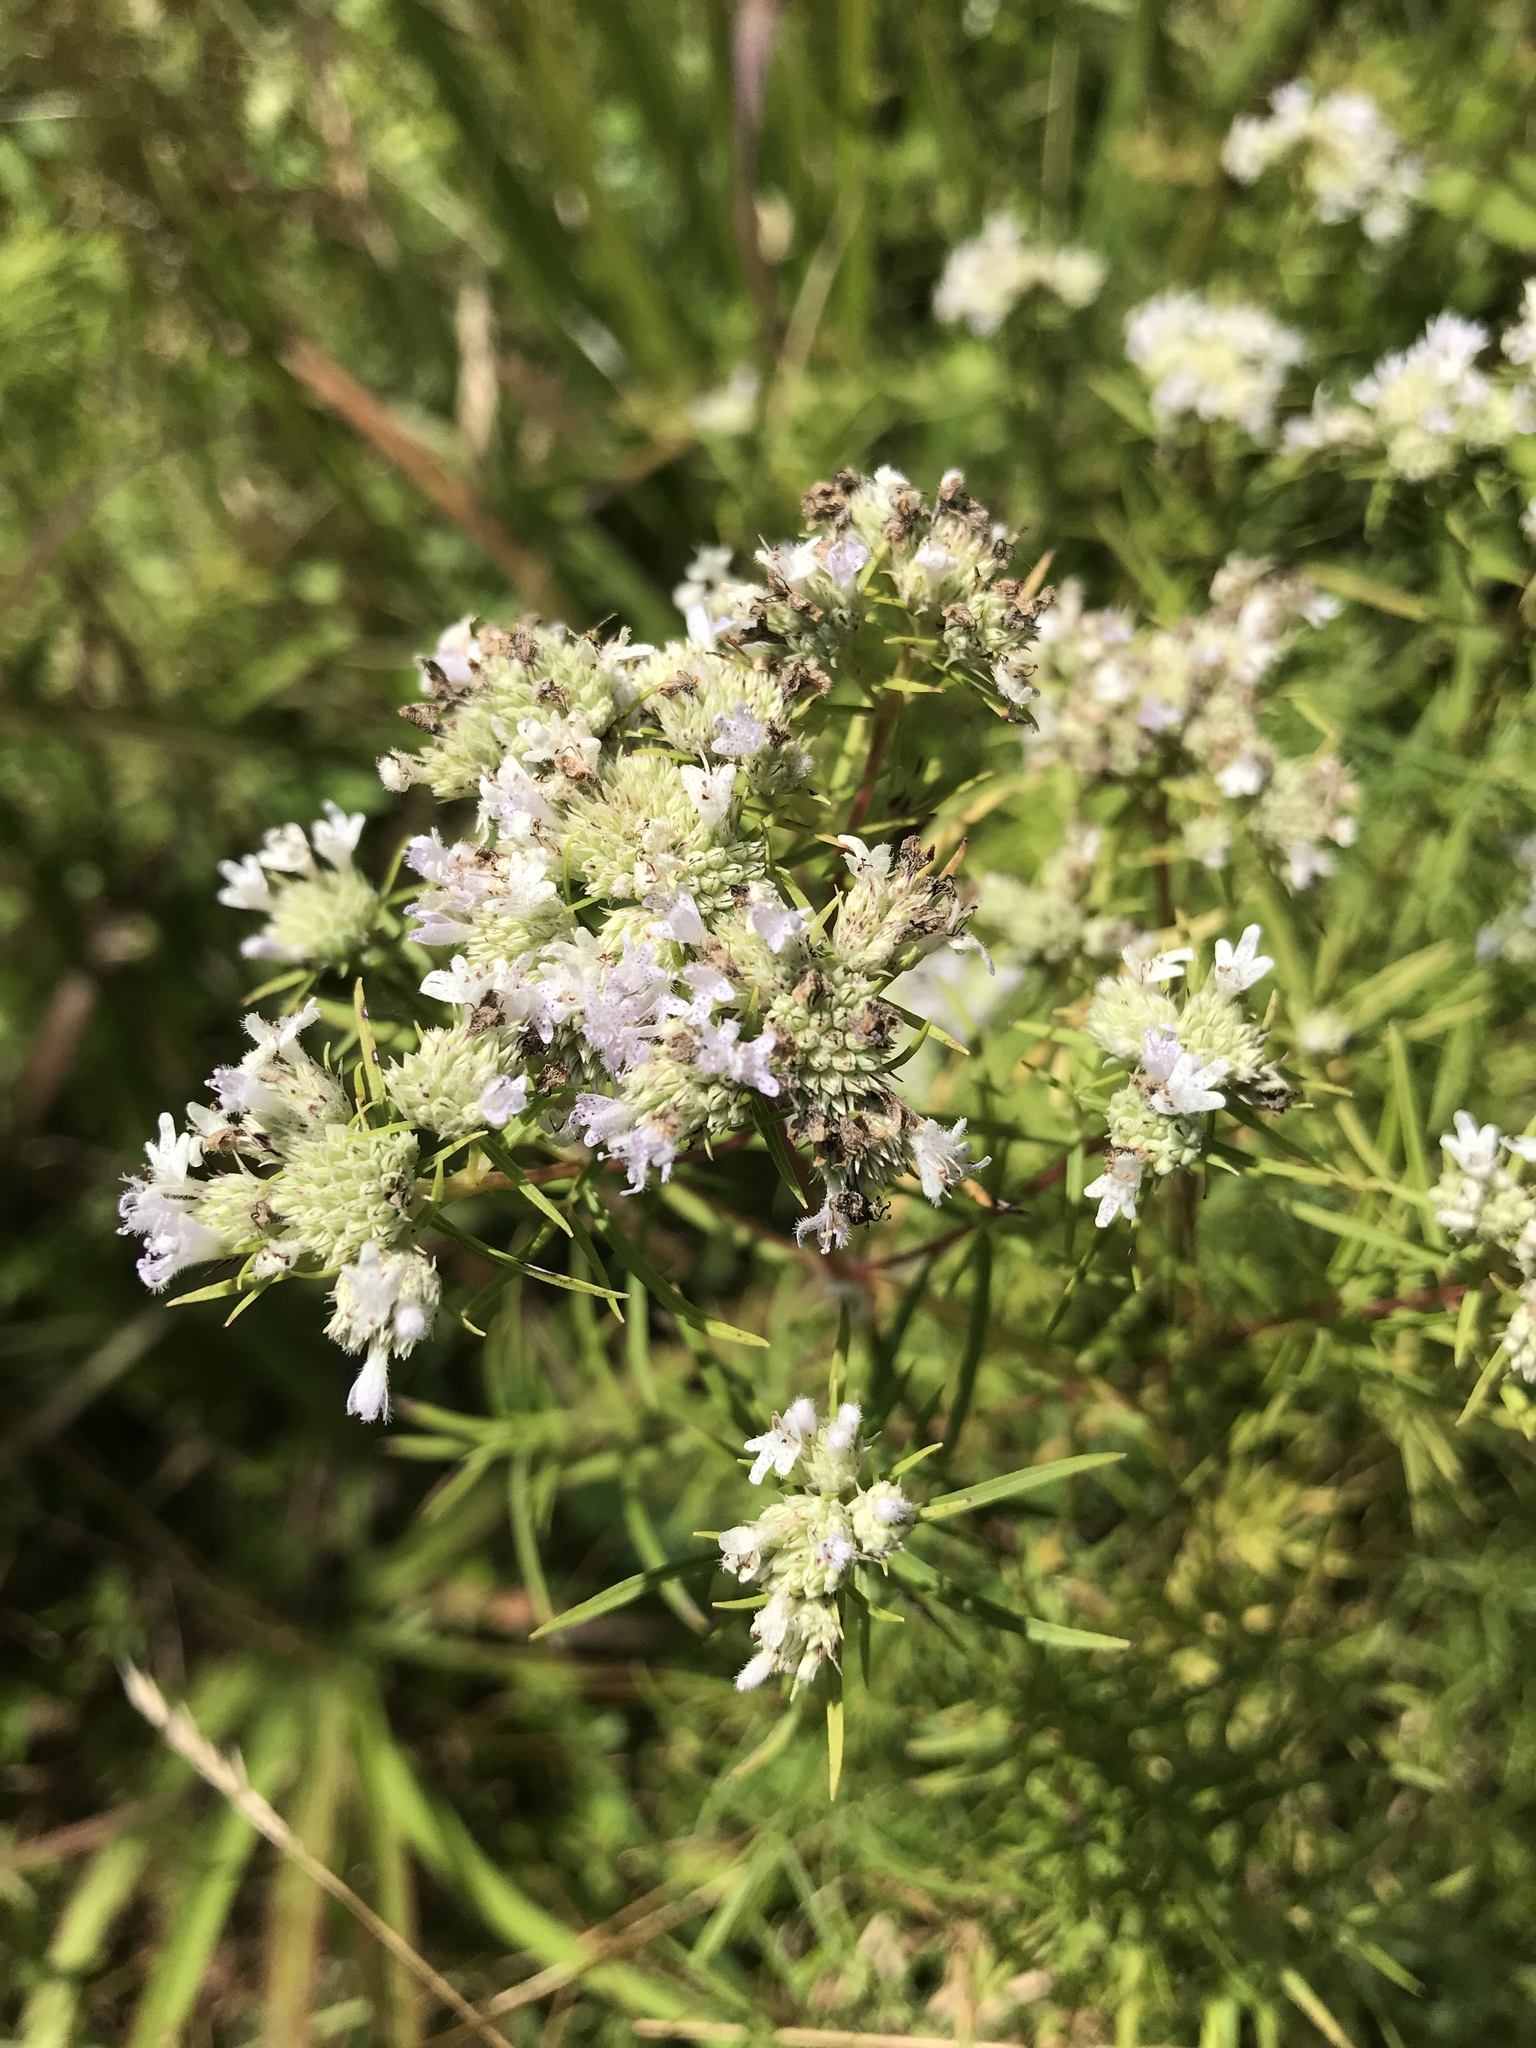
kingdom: Plantae
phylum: Tracheophyta
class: Magnoliopsida
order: Lamiales
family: Lamiaceae
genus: Pycnanthemum
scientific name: Pycnanthemum tenuifolium
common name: Narrow-leaf mountain-mint
